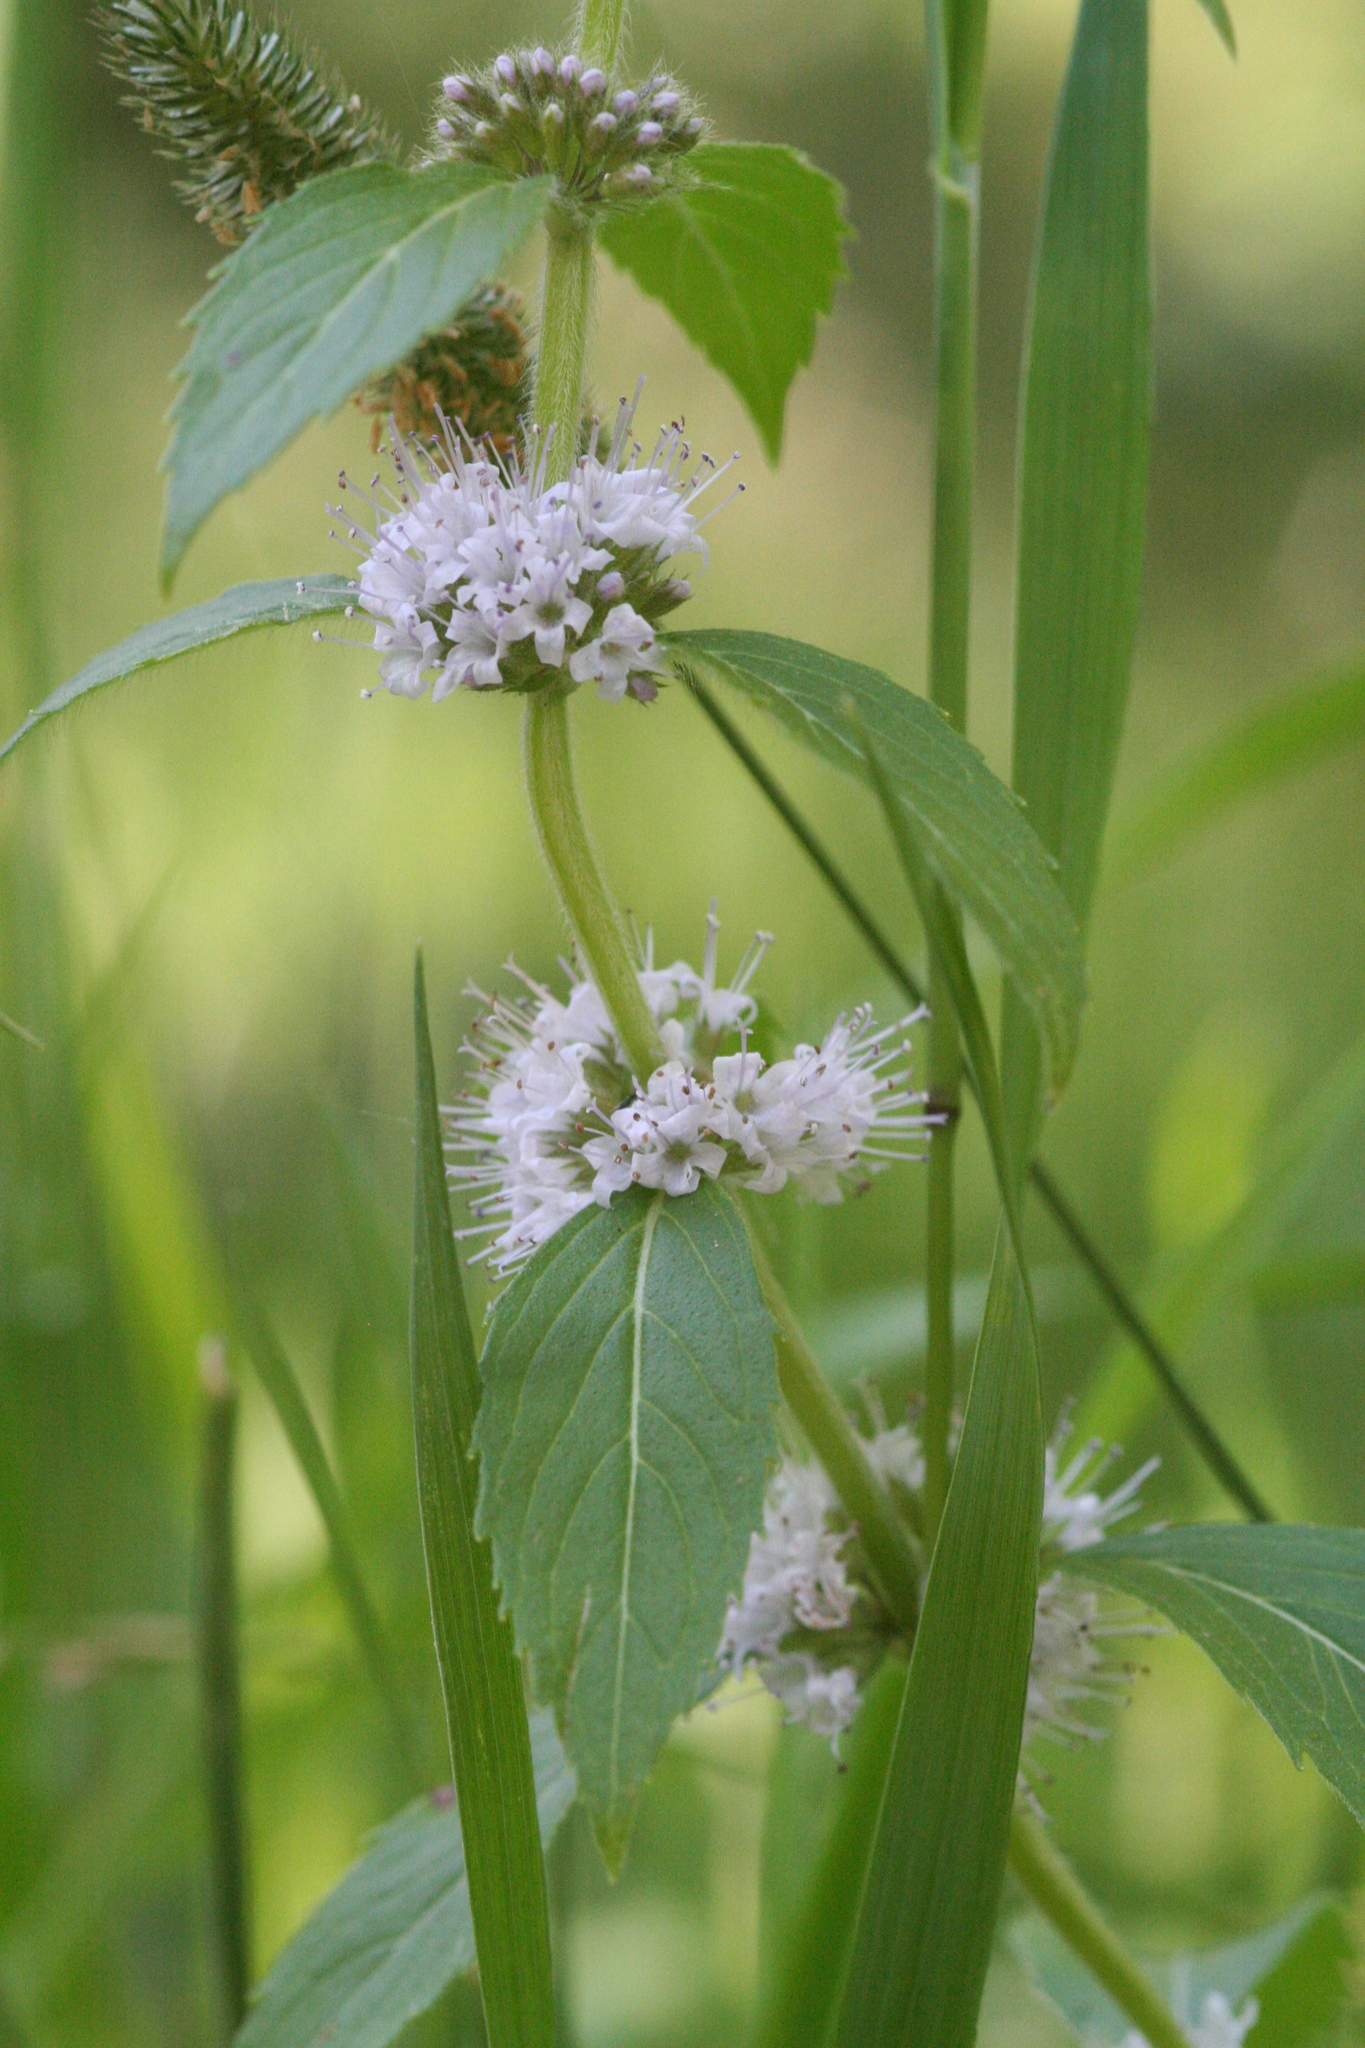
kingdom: Plantae
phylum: Tracheophyta
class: Magnoliopsida
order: Lamiales
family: Lamiaceae
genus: Mentha
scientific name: Mentha canadensis
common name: American corn mint
